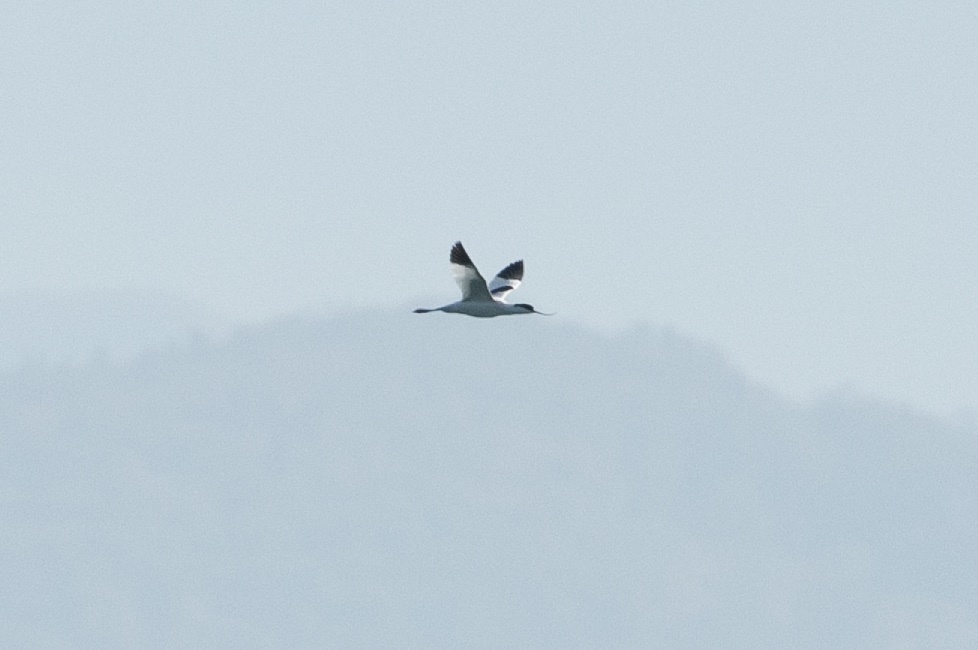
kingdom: Animalia
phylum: Chordata
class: Aves
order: Charadriiformes
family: Recurvirostridae
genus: Recurvirostra
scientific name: Recurvirostra avosetta
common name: Pied avocet
